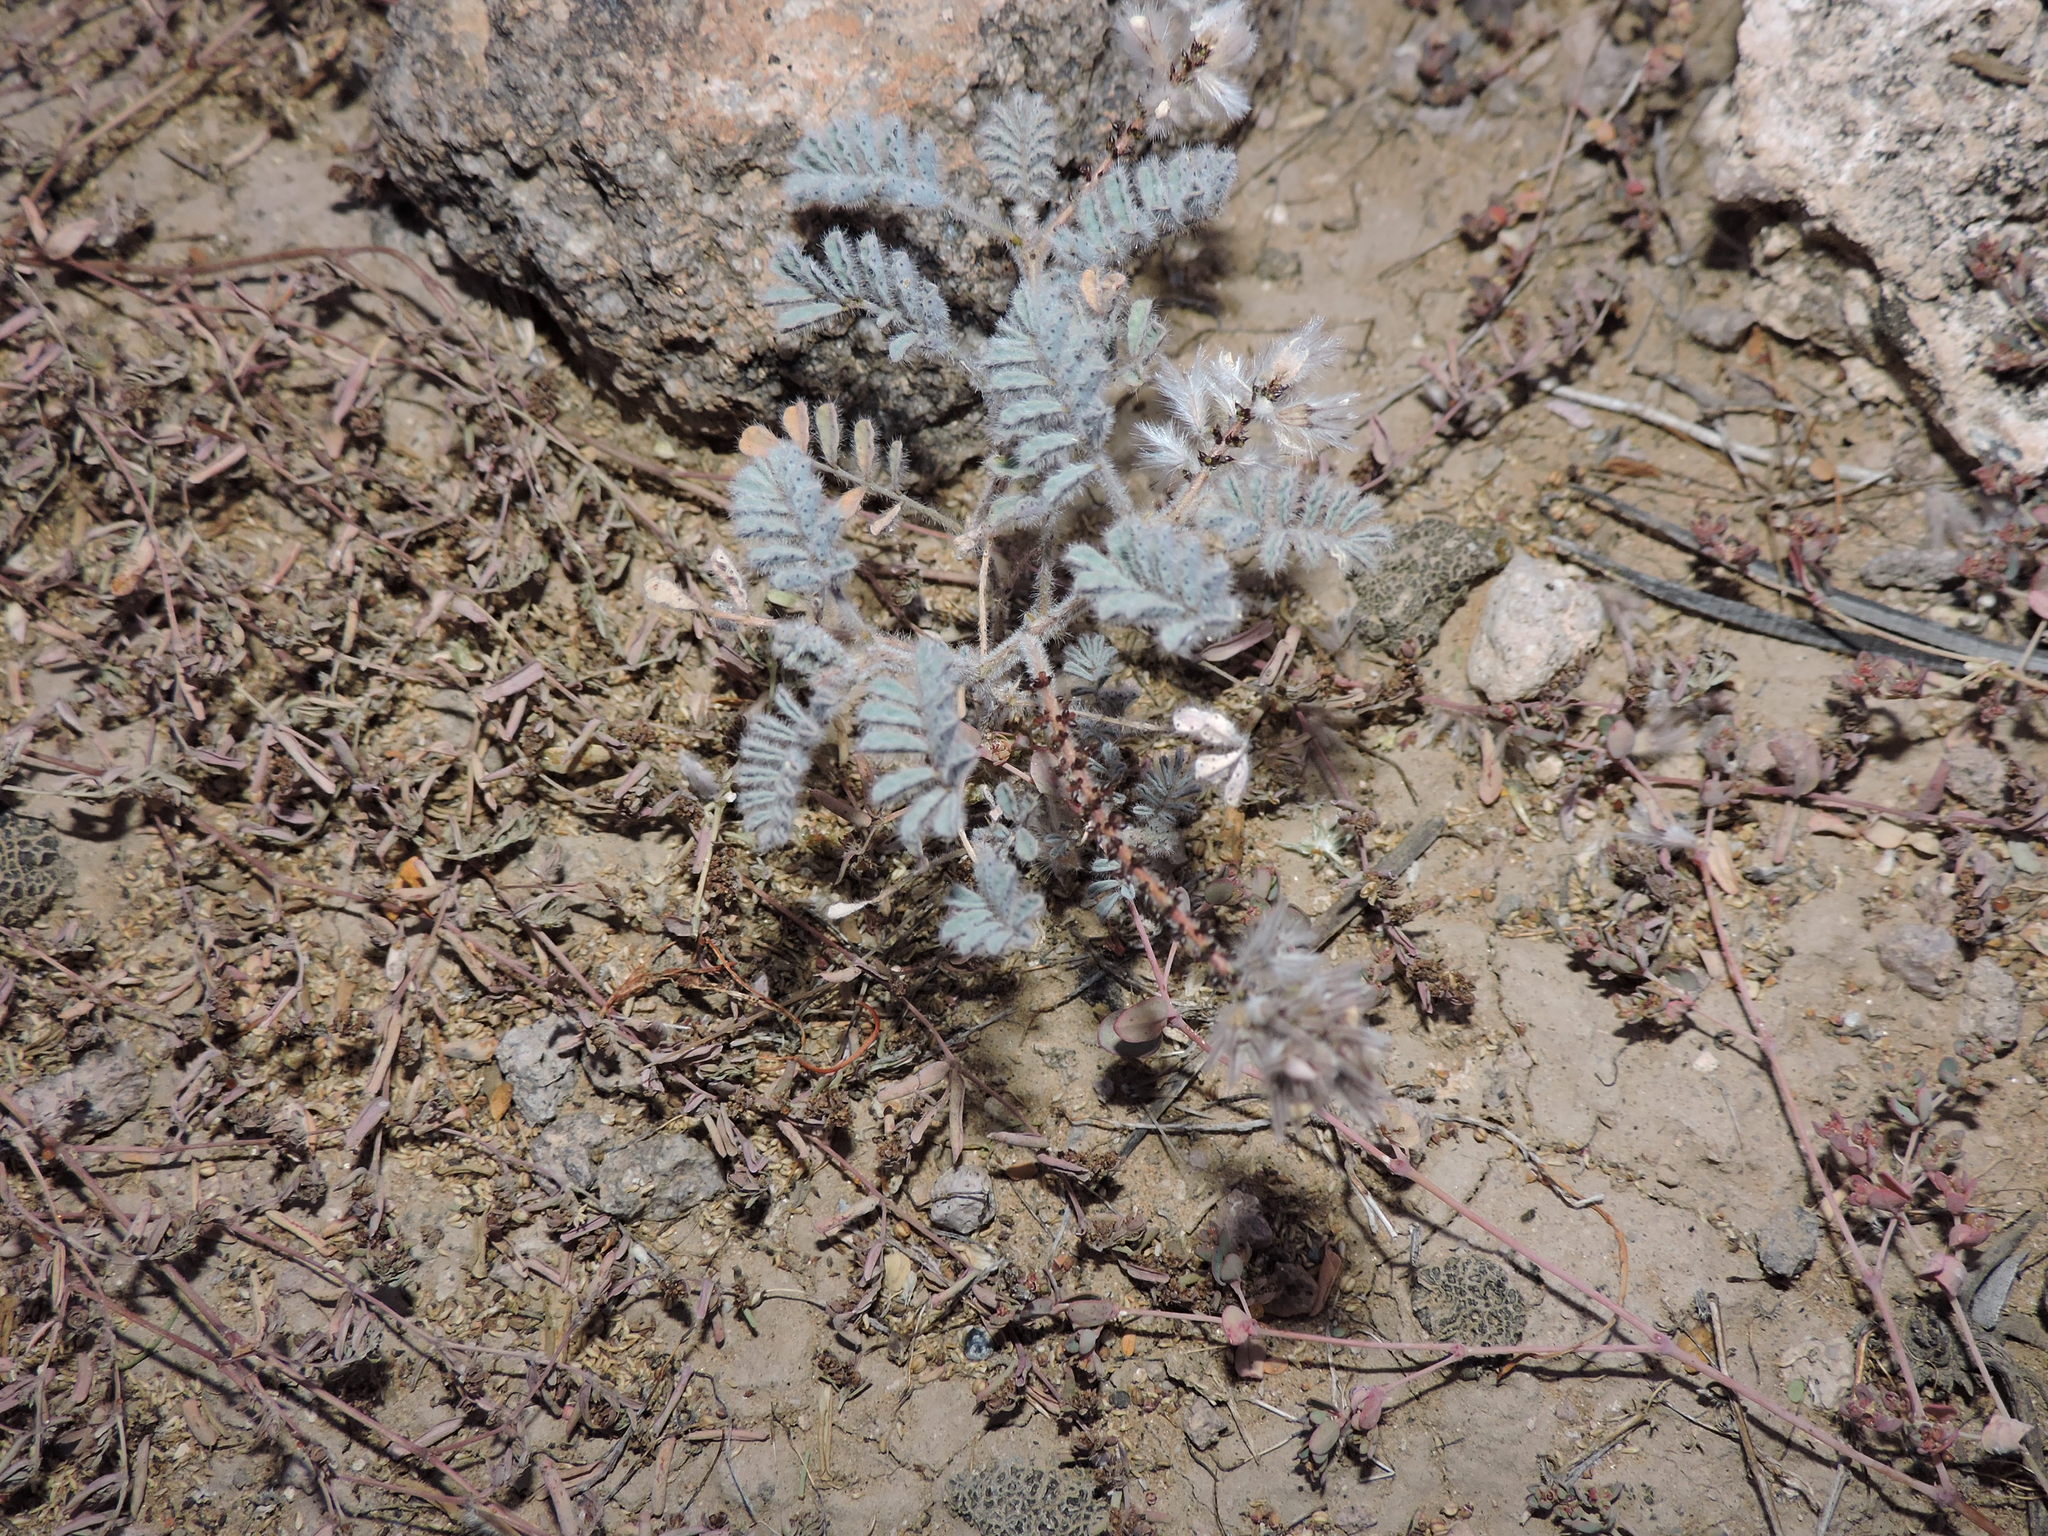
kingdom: Plantae
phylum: Tracheophyta
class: Magnoliopsida
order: Fabales
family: Fabaceae
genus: Dalea
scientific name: Dalea mollissima
